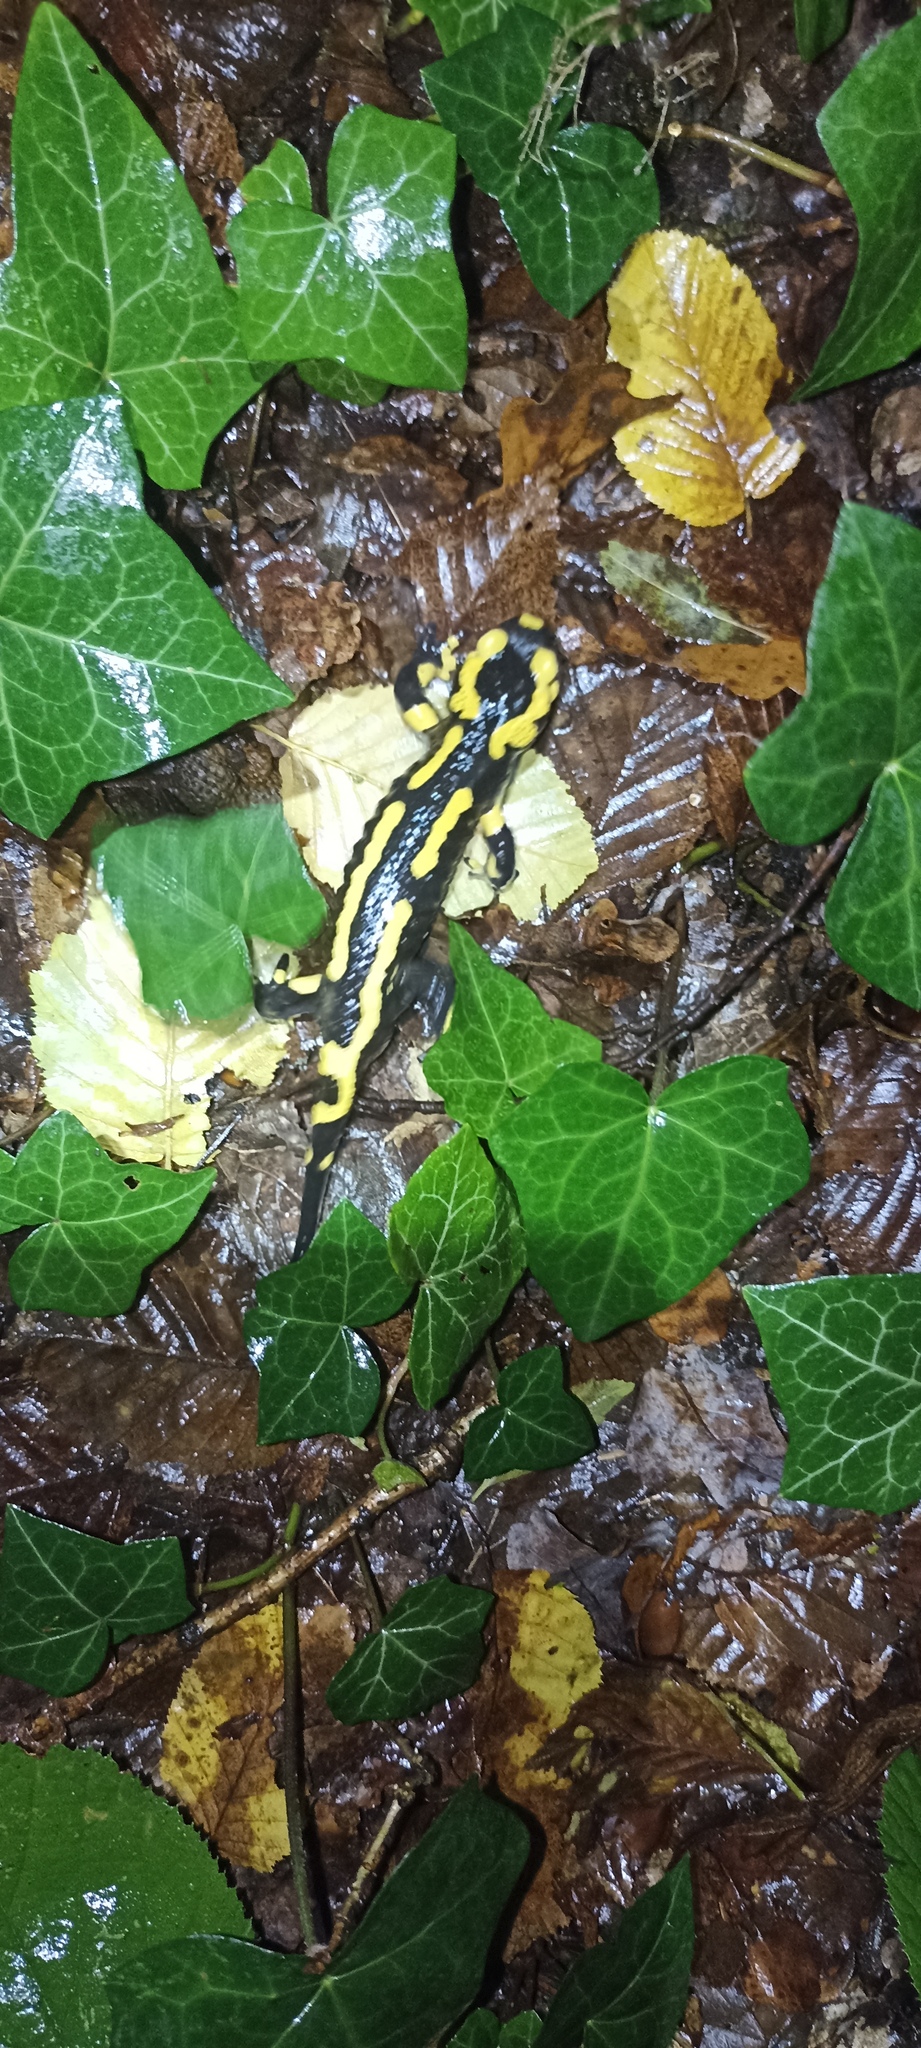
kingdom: Animalia
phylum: Chordata
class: Amphibia
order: Caudata
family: Salamandridae
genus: Salamandra
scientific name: Salamandra salamandra
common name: Fire salamander
